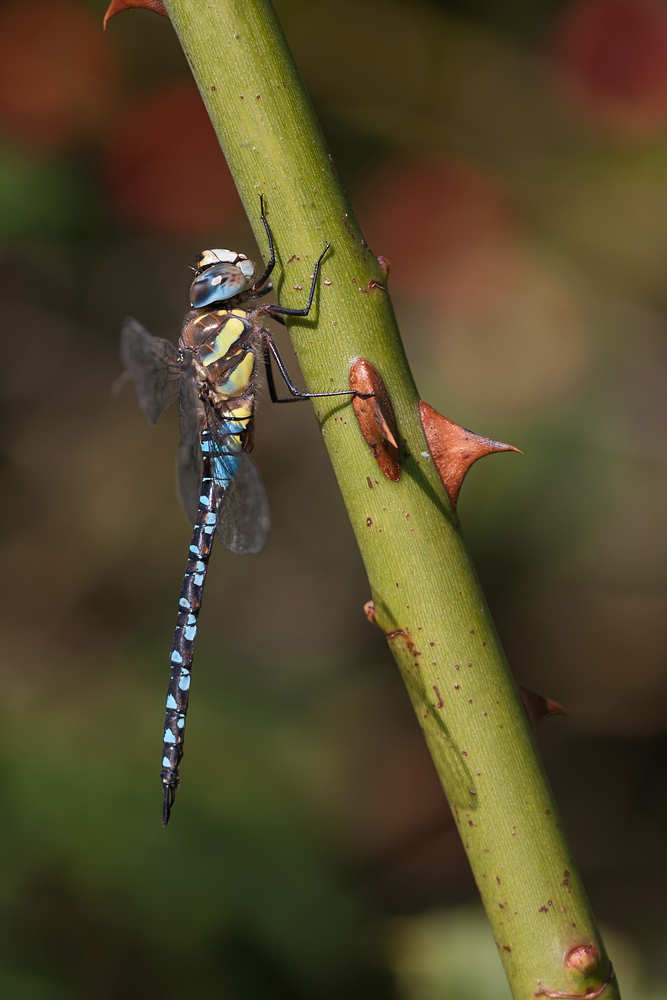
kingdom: Animalia
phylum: Arthropoda
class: Insecta
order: Odonata
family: Aeshnidae
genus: Aeshna
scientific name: Aeshna mixta
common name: Migrant hawker
